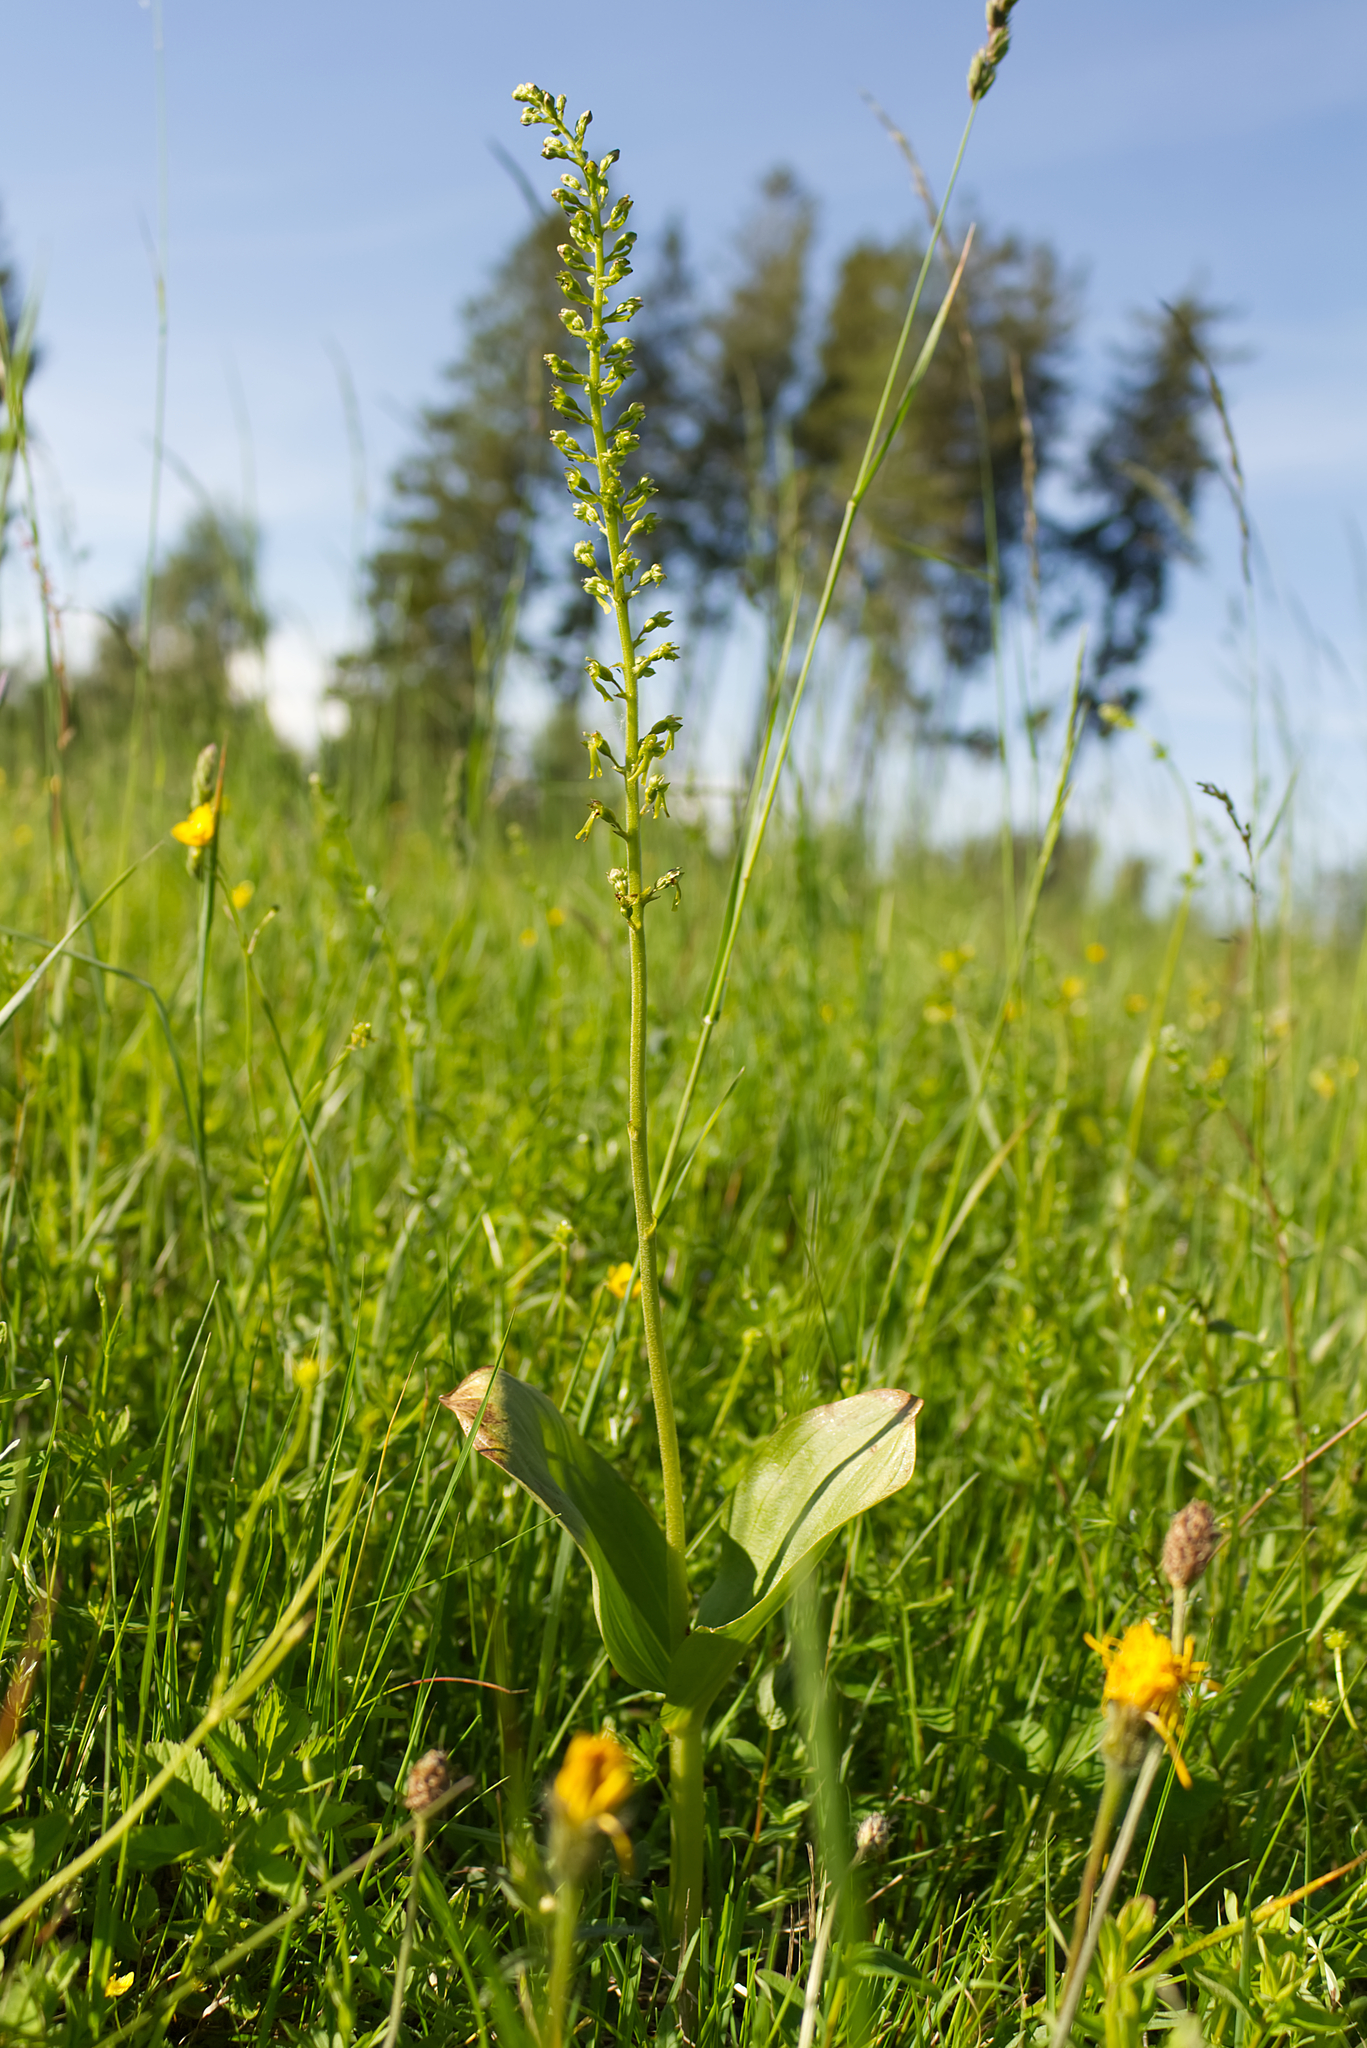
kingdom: Plantae
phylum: Tracheophyta
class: Liliopsida
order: Asparagales
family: Orchidaceae
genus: Neottia
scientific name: Neottia ovata
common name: Common twayblade
